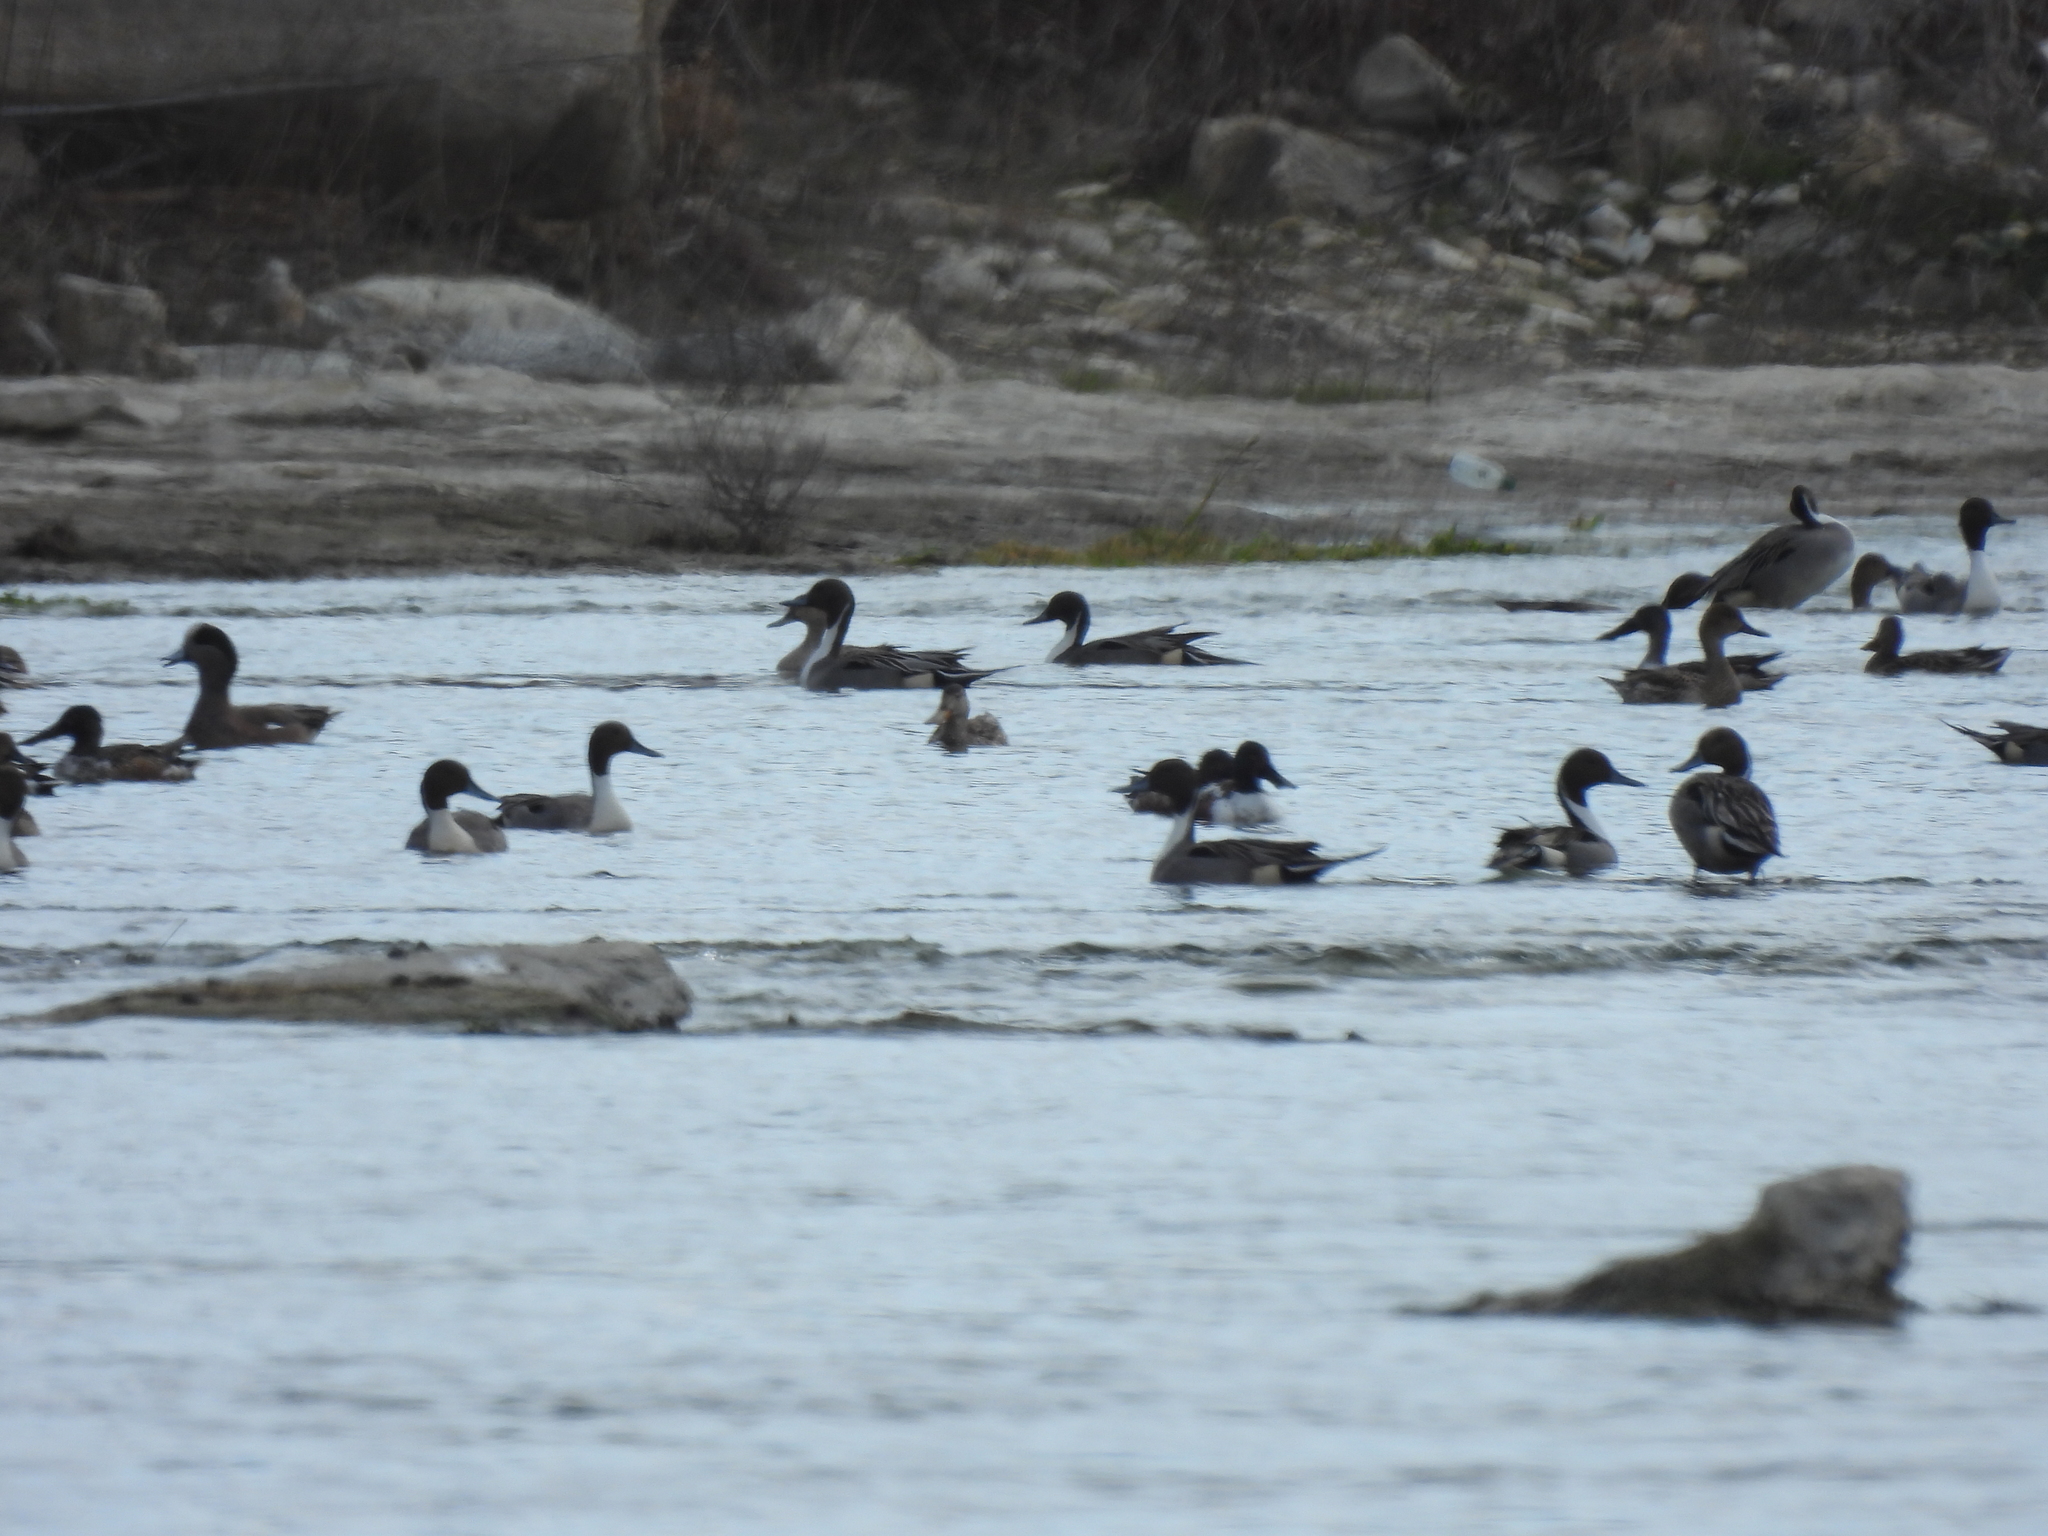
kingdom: Animalia
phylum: Chordata
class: Aves
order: Anseriformes
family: Anatidae
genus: Anas
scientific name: Anas acuta
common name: Northern pintail
